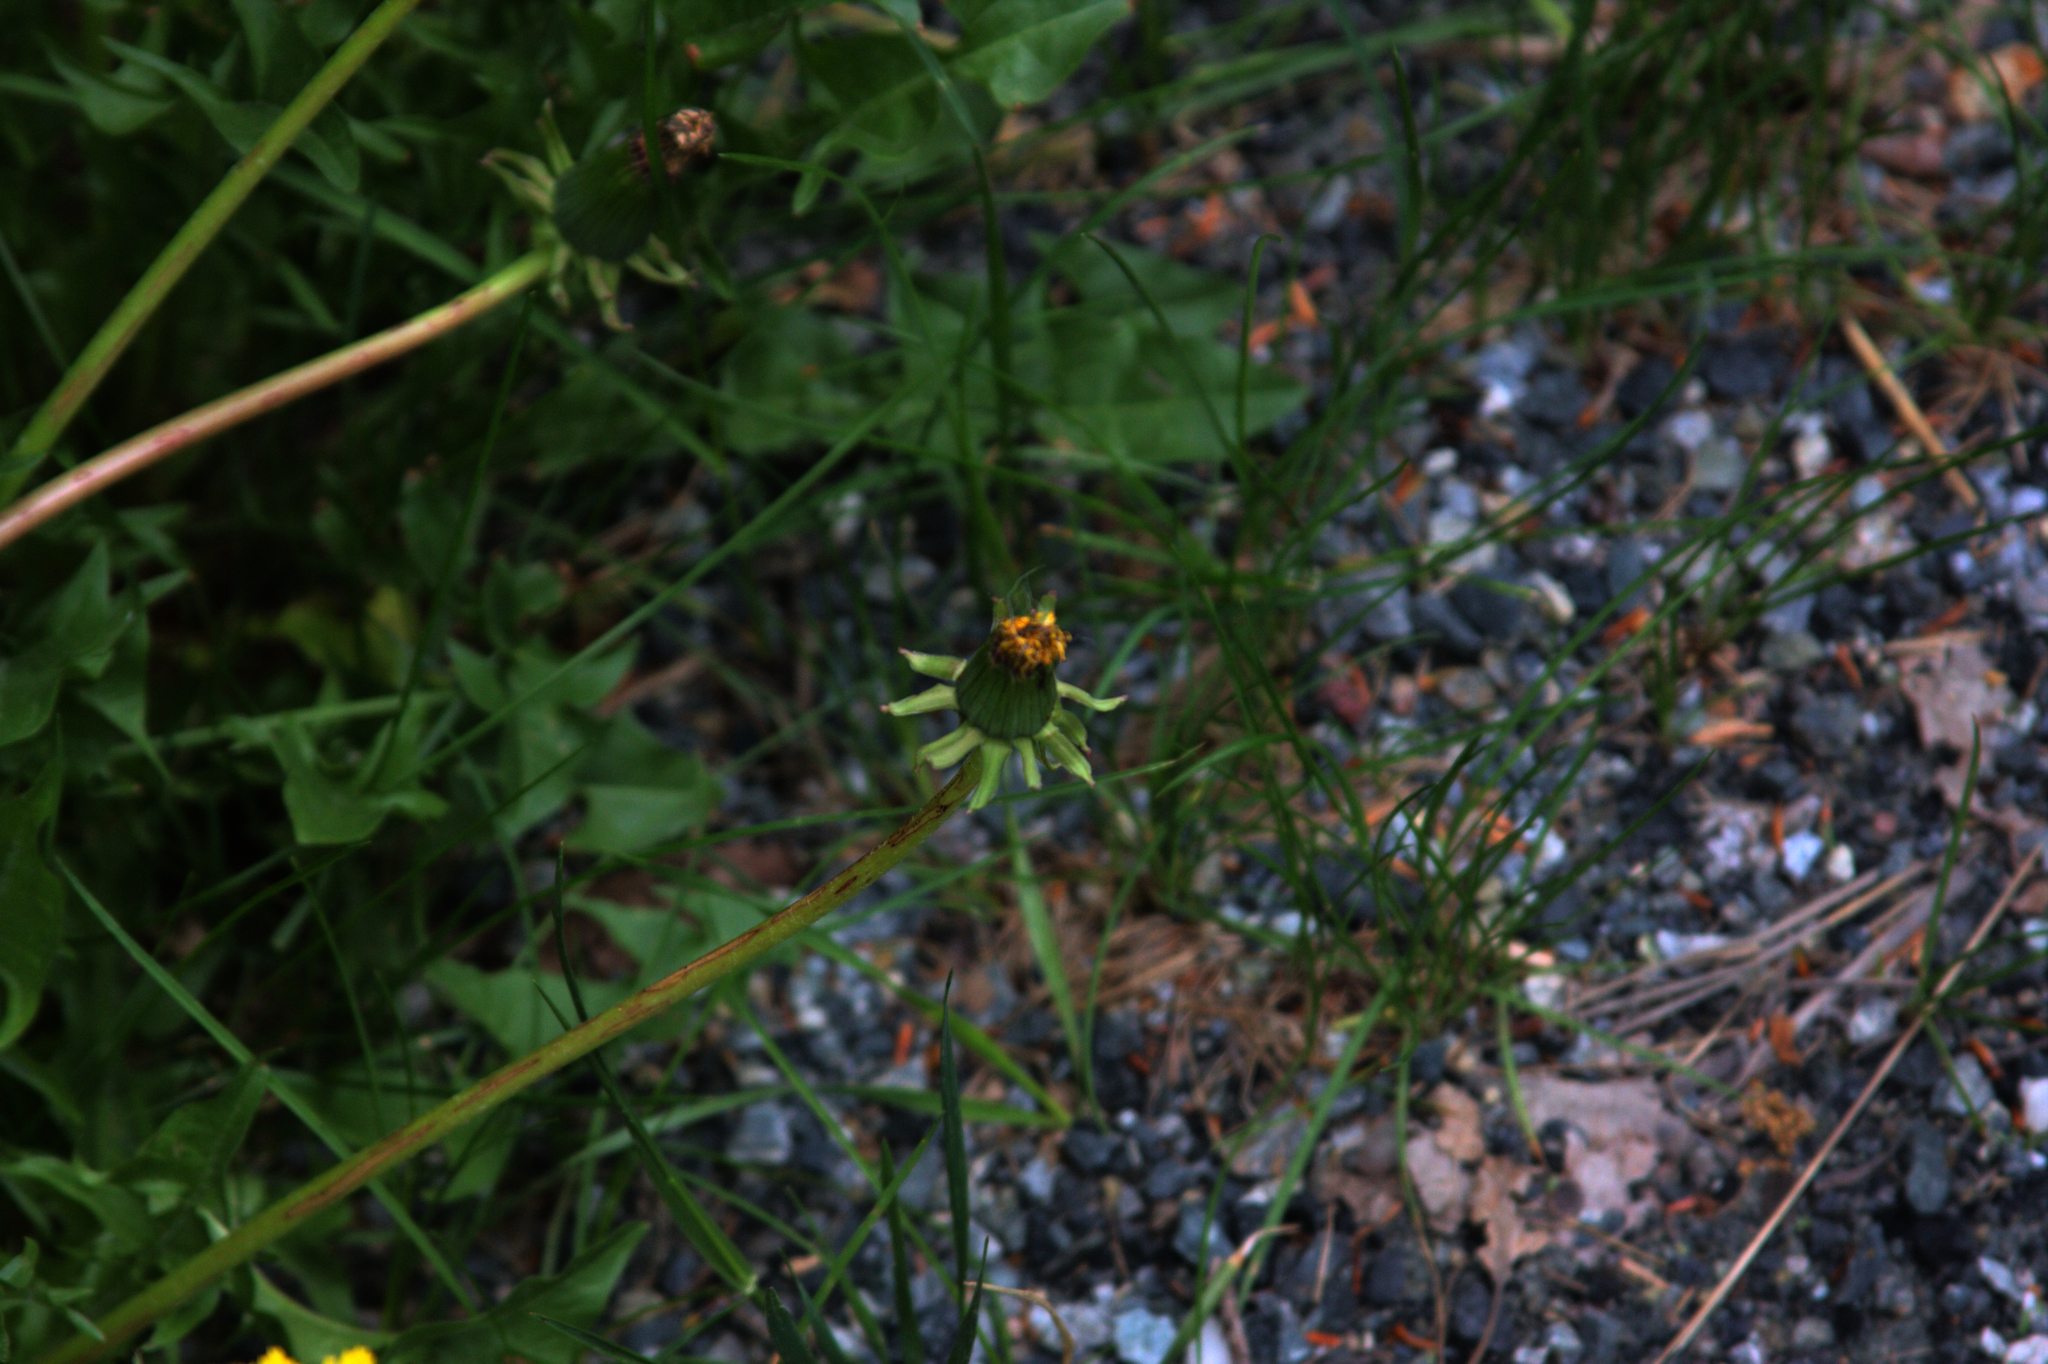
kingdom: Plantae
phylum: Tracheophyta
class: Magnoliopsida
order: Asterales
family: Asteraceae
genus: Taraxacum
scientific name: Taraxacum erythrospermum
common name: Rock dandelion
